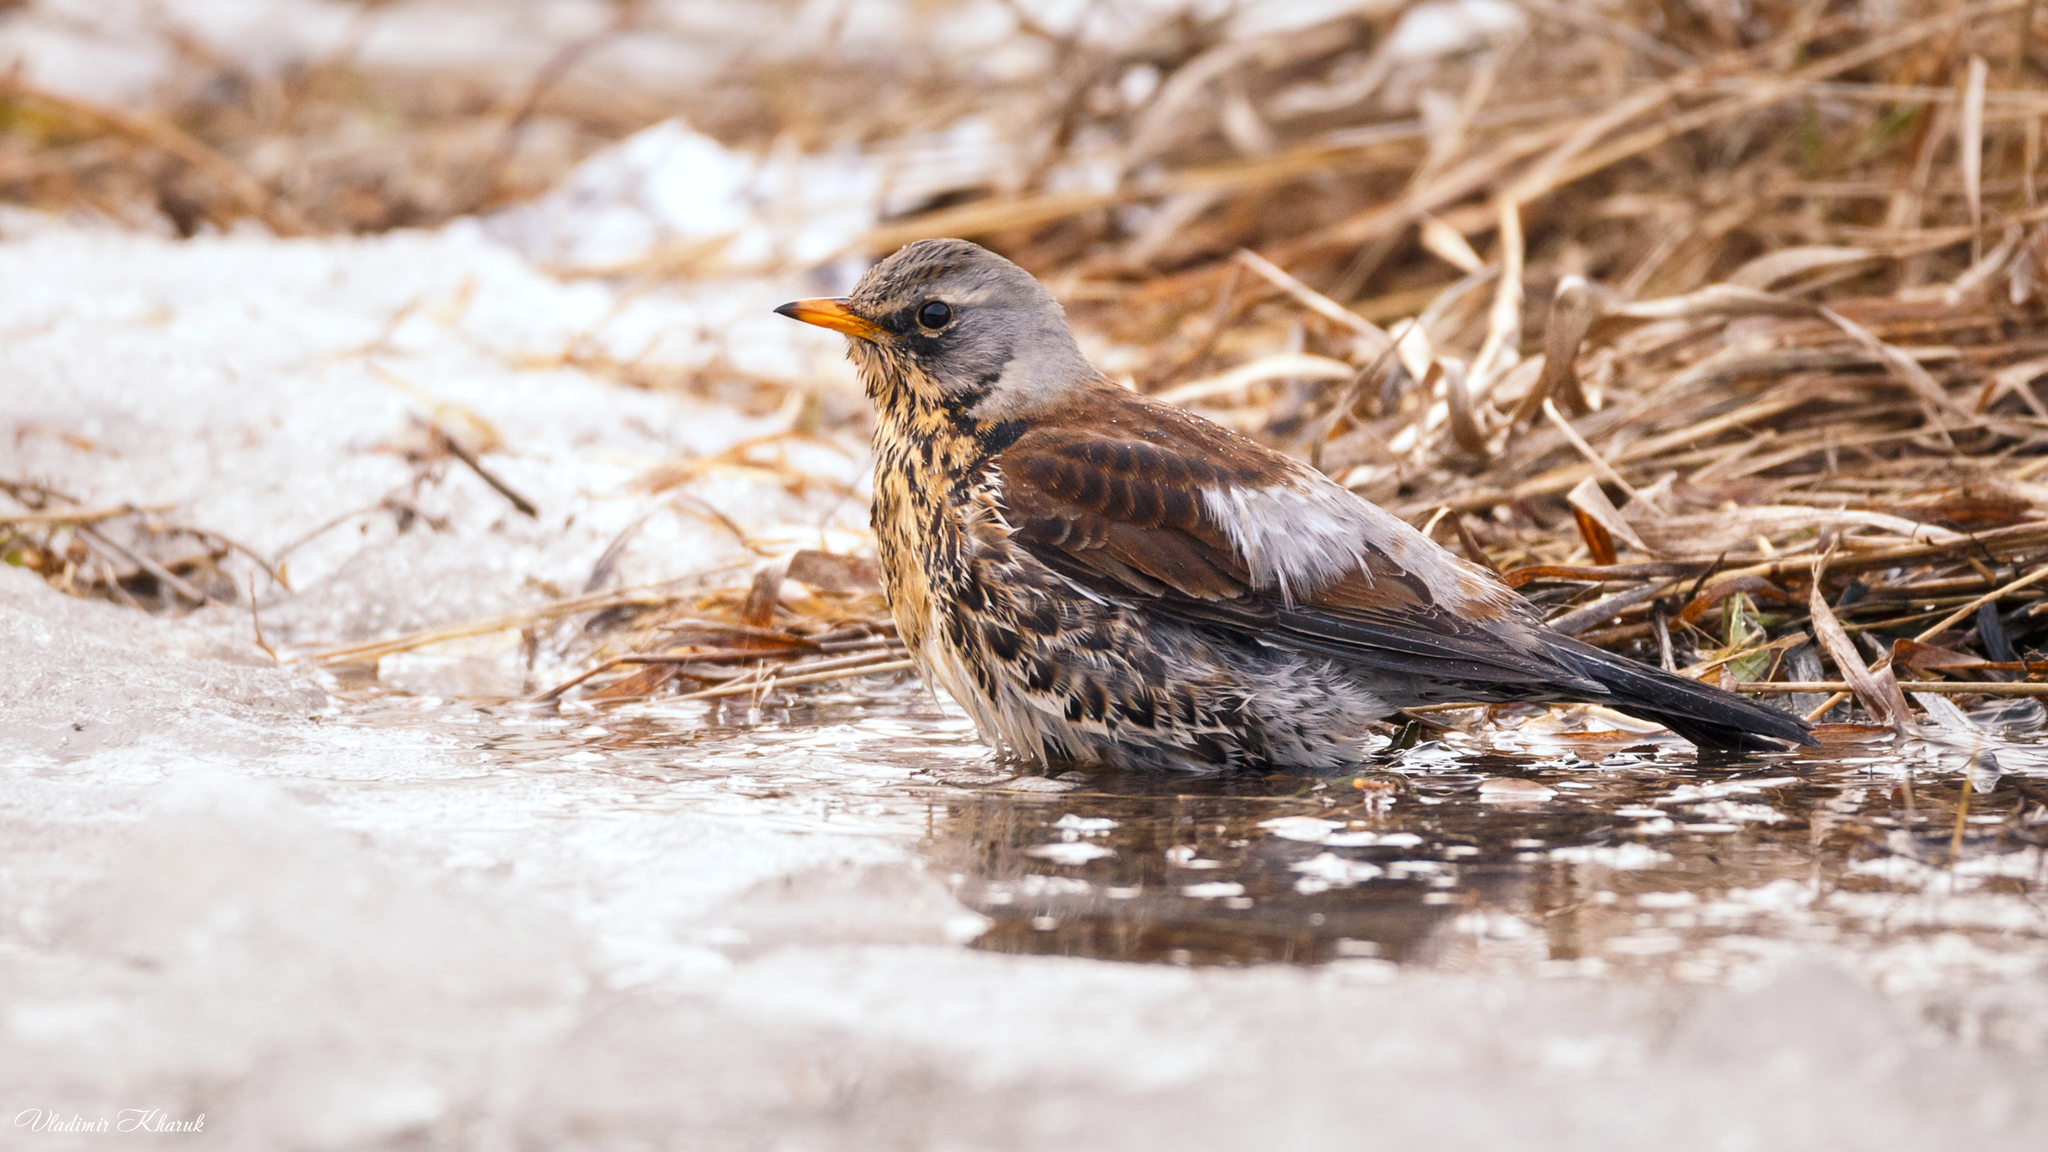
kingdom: Animalia
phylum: Chordata
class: Aves
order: Passeriformes
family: Turdidae
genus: Turdus
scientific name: Turdus pilaris
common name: Fieldfare
